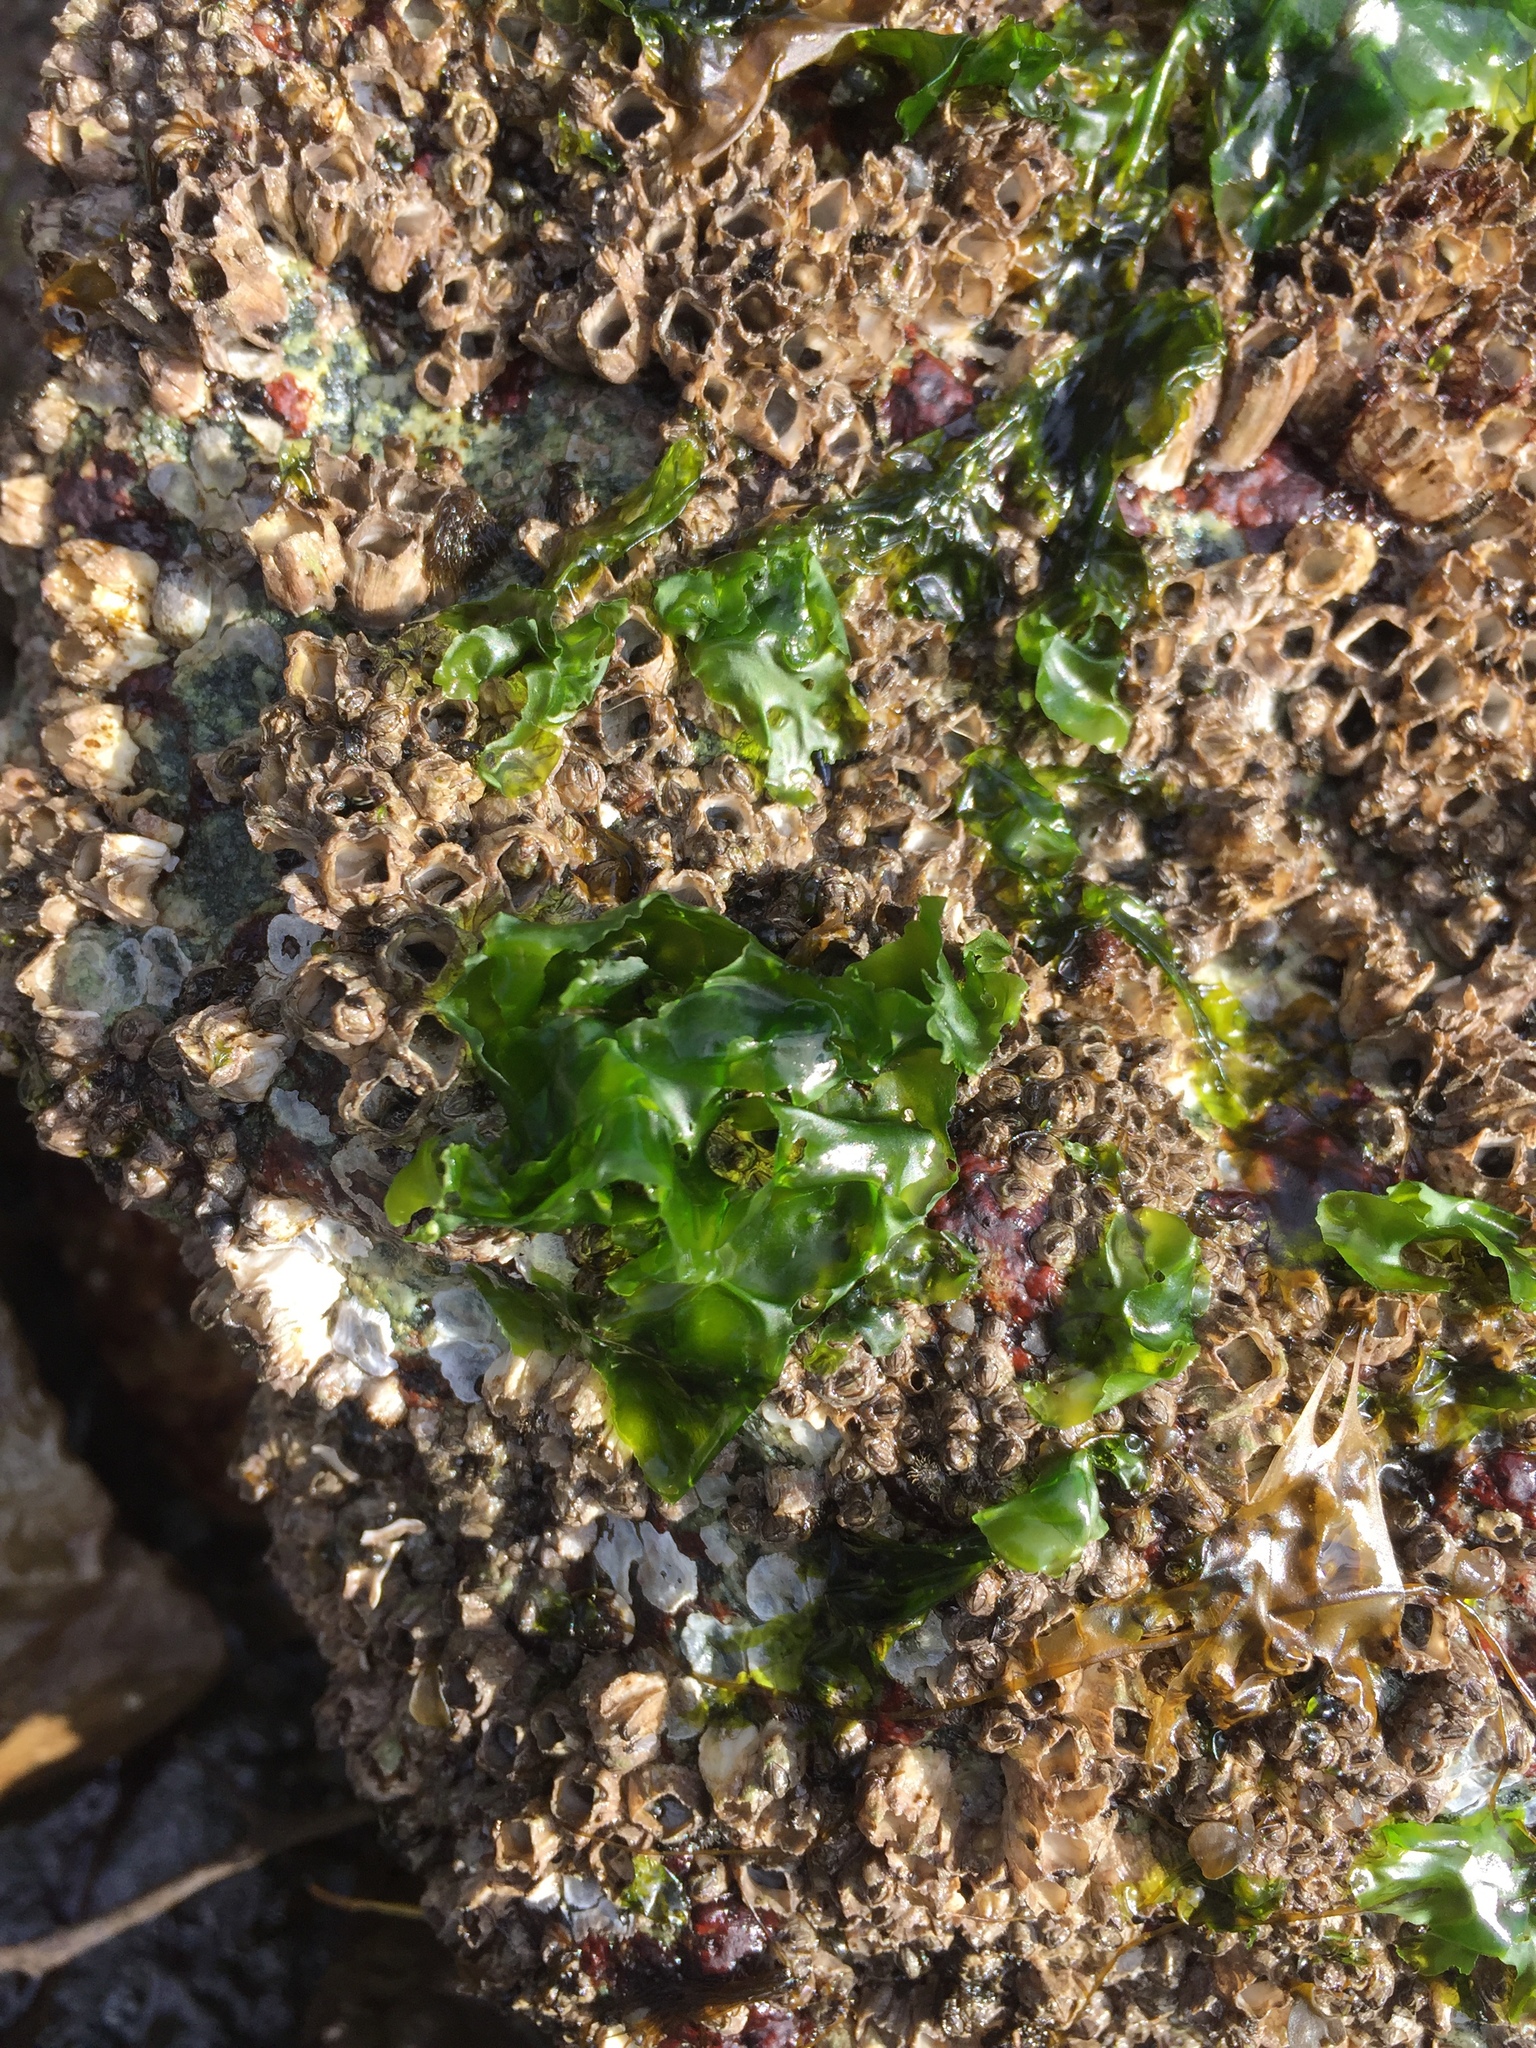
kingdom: Plantae
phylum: Chlorophyta
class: Ulvophyceae
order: Ulvales
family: Ulvaceae
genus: Ulva
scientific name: Ulva lactuca
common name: Sea lettuce
